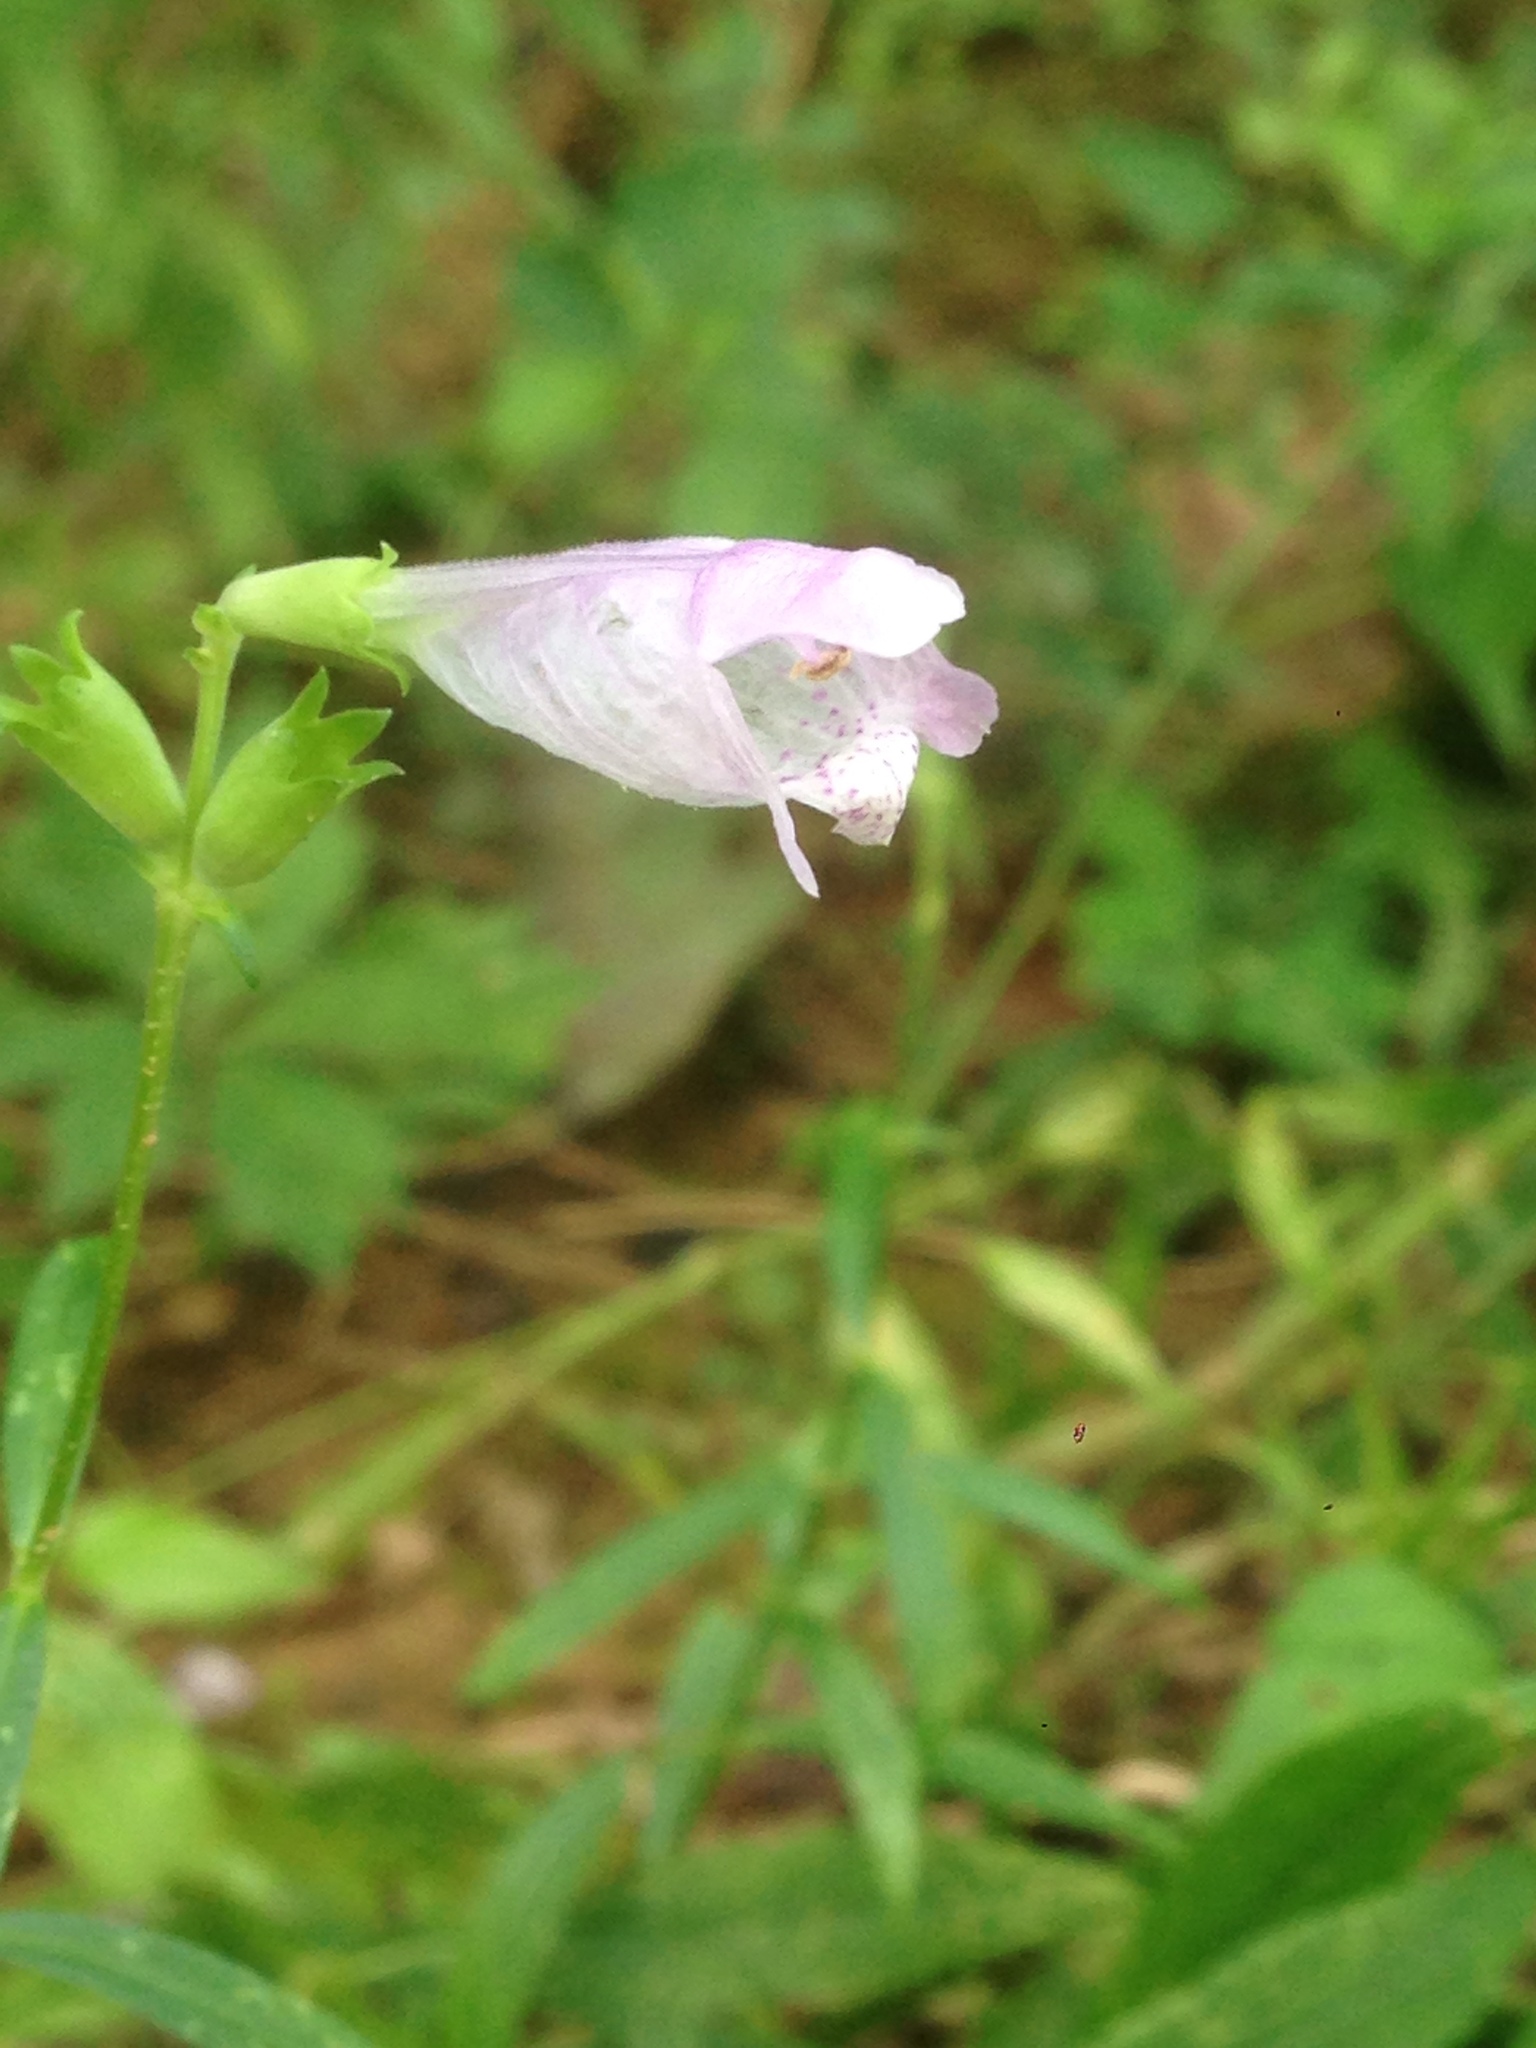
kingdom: Plantae
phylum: Tracheophyta
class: Magnoliopsida
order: Lamiales
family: Lamiaceae
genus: Physostegia
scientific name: Physostegia virginiana
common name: Obedient-plant
